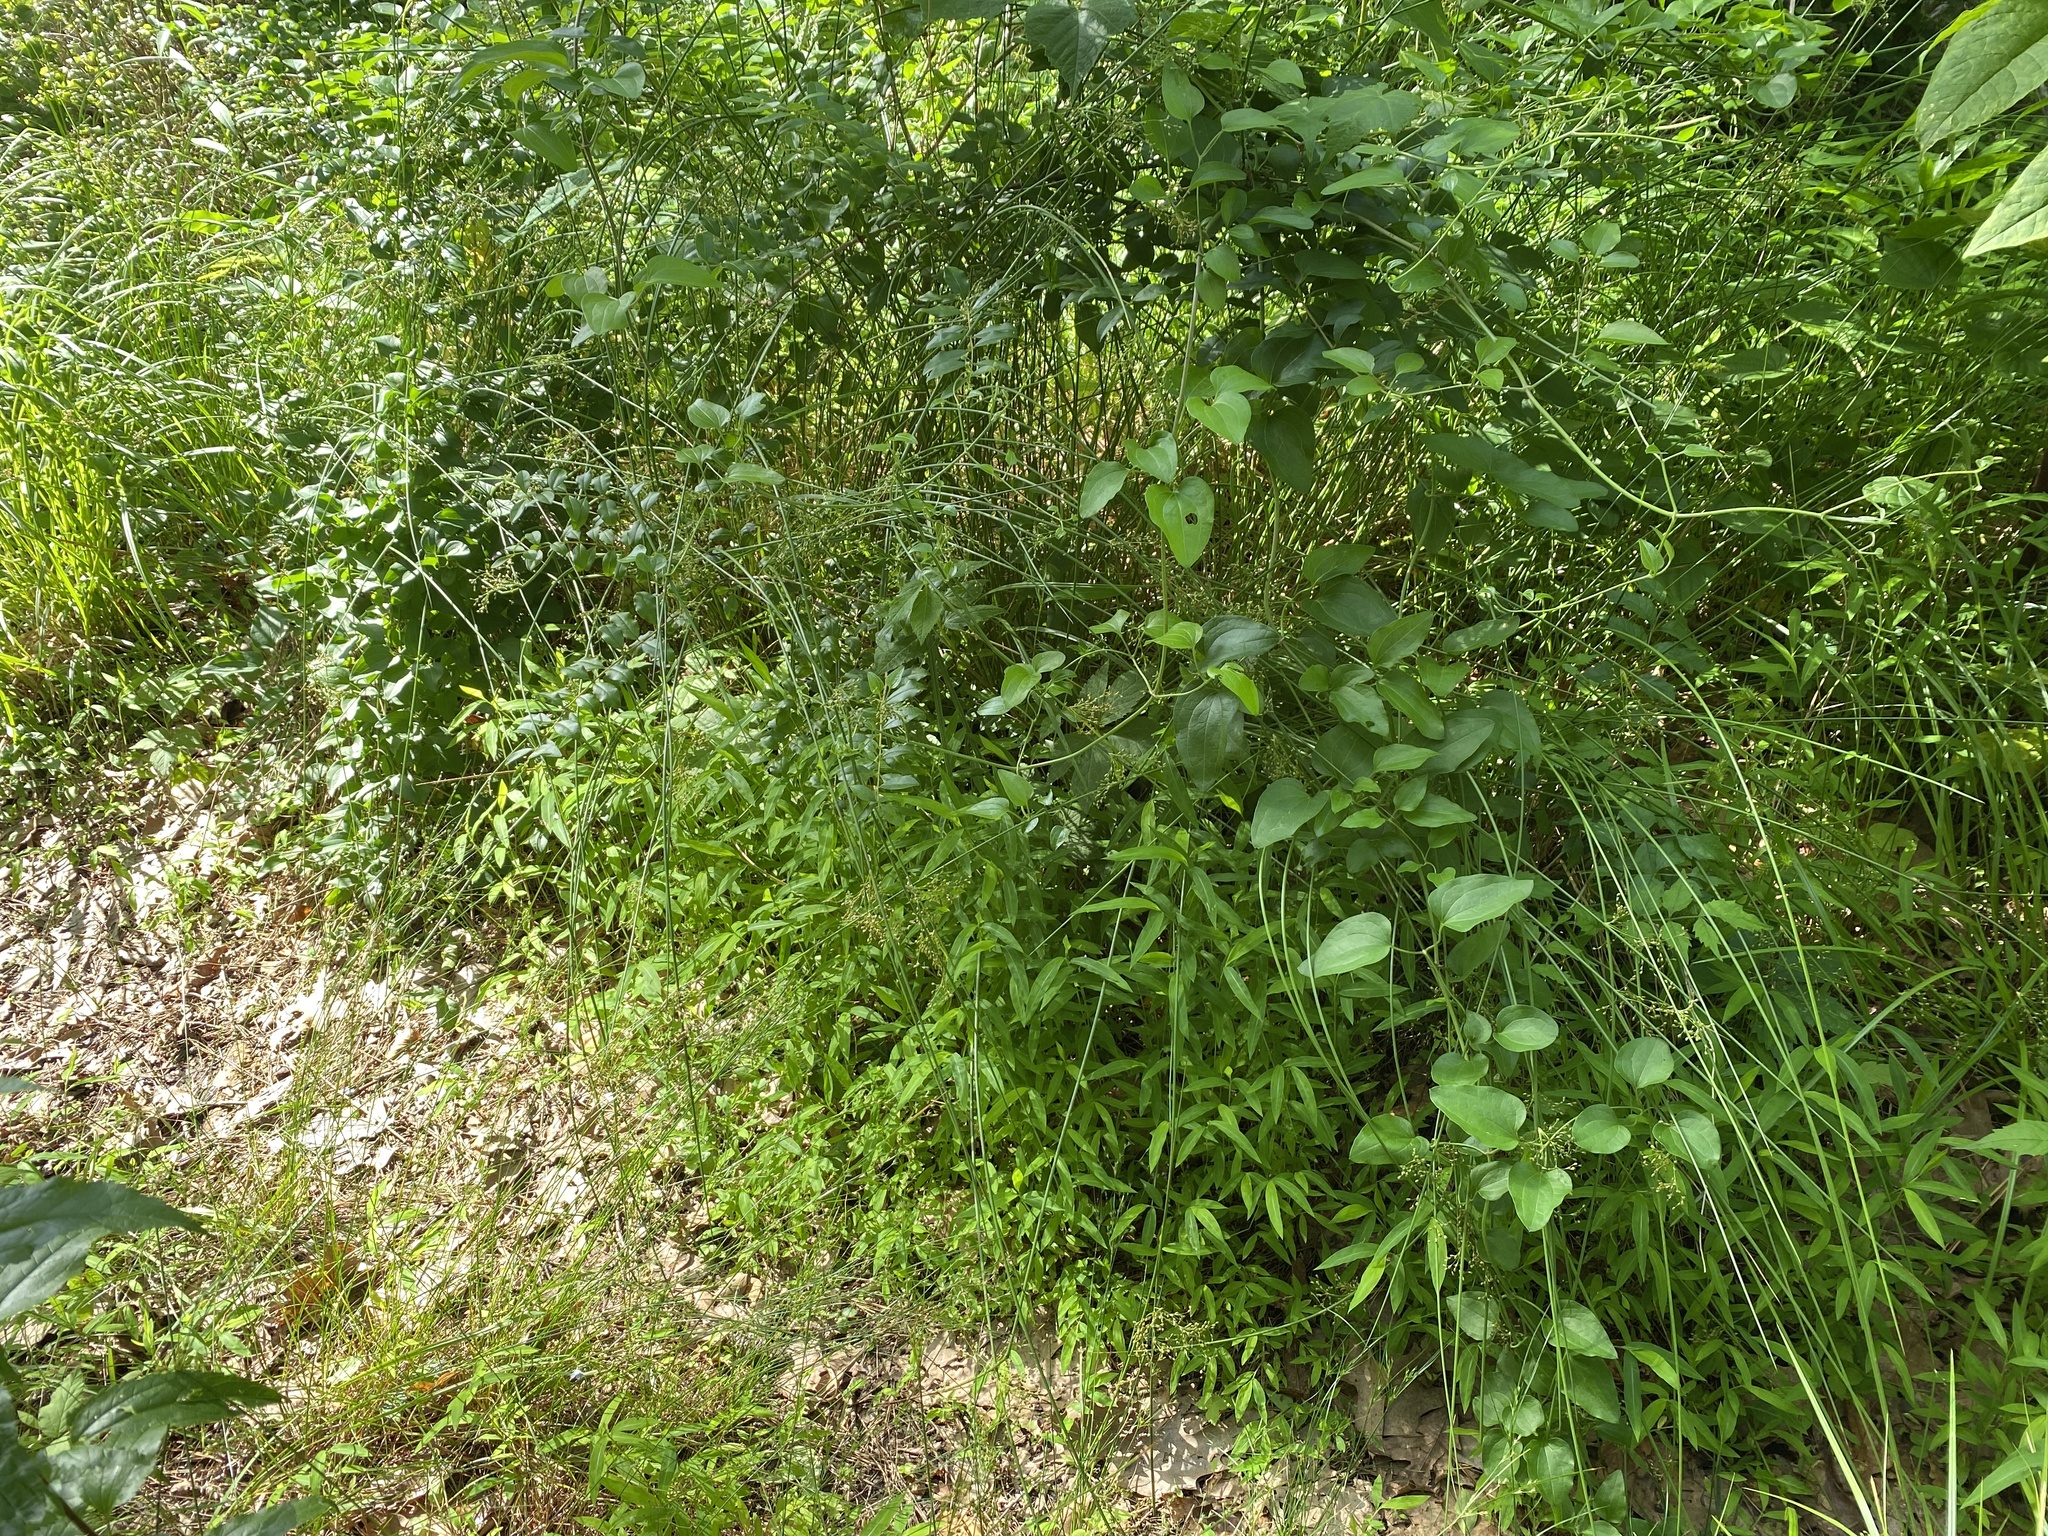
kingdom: Plantae
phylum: Tracheophyta
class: Liliopsida
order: Poales
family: Juncaceae
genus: Juncus
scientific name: Juncus effusus
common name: Soft rush
